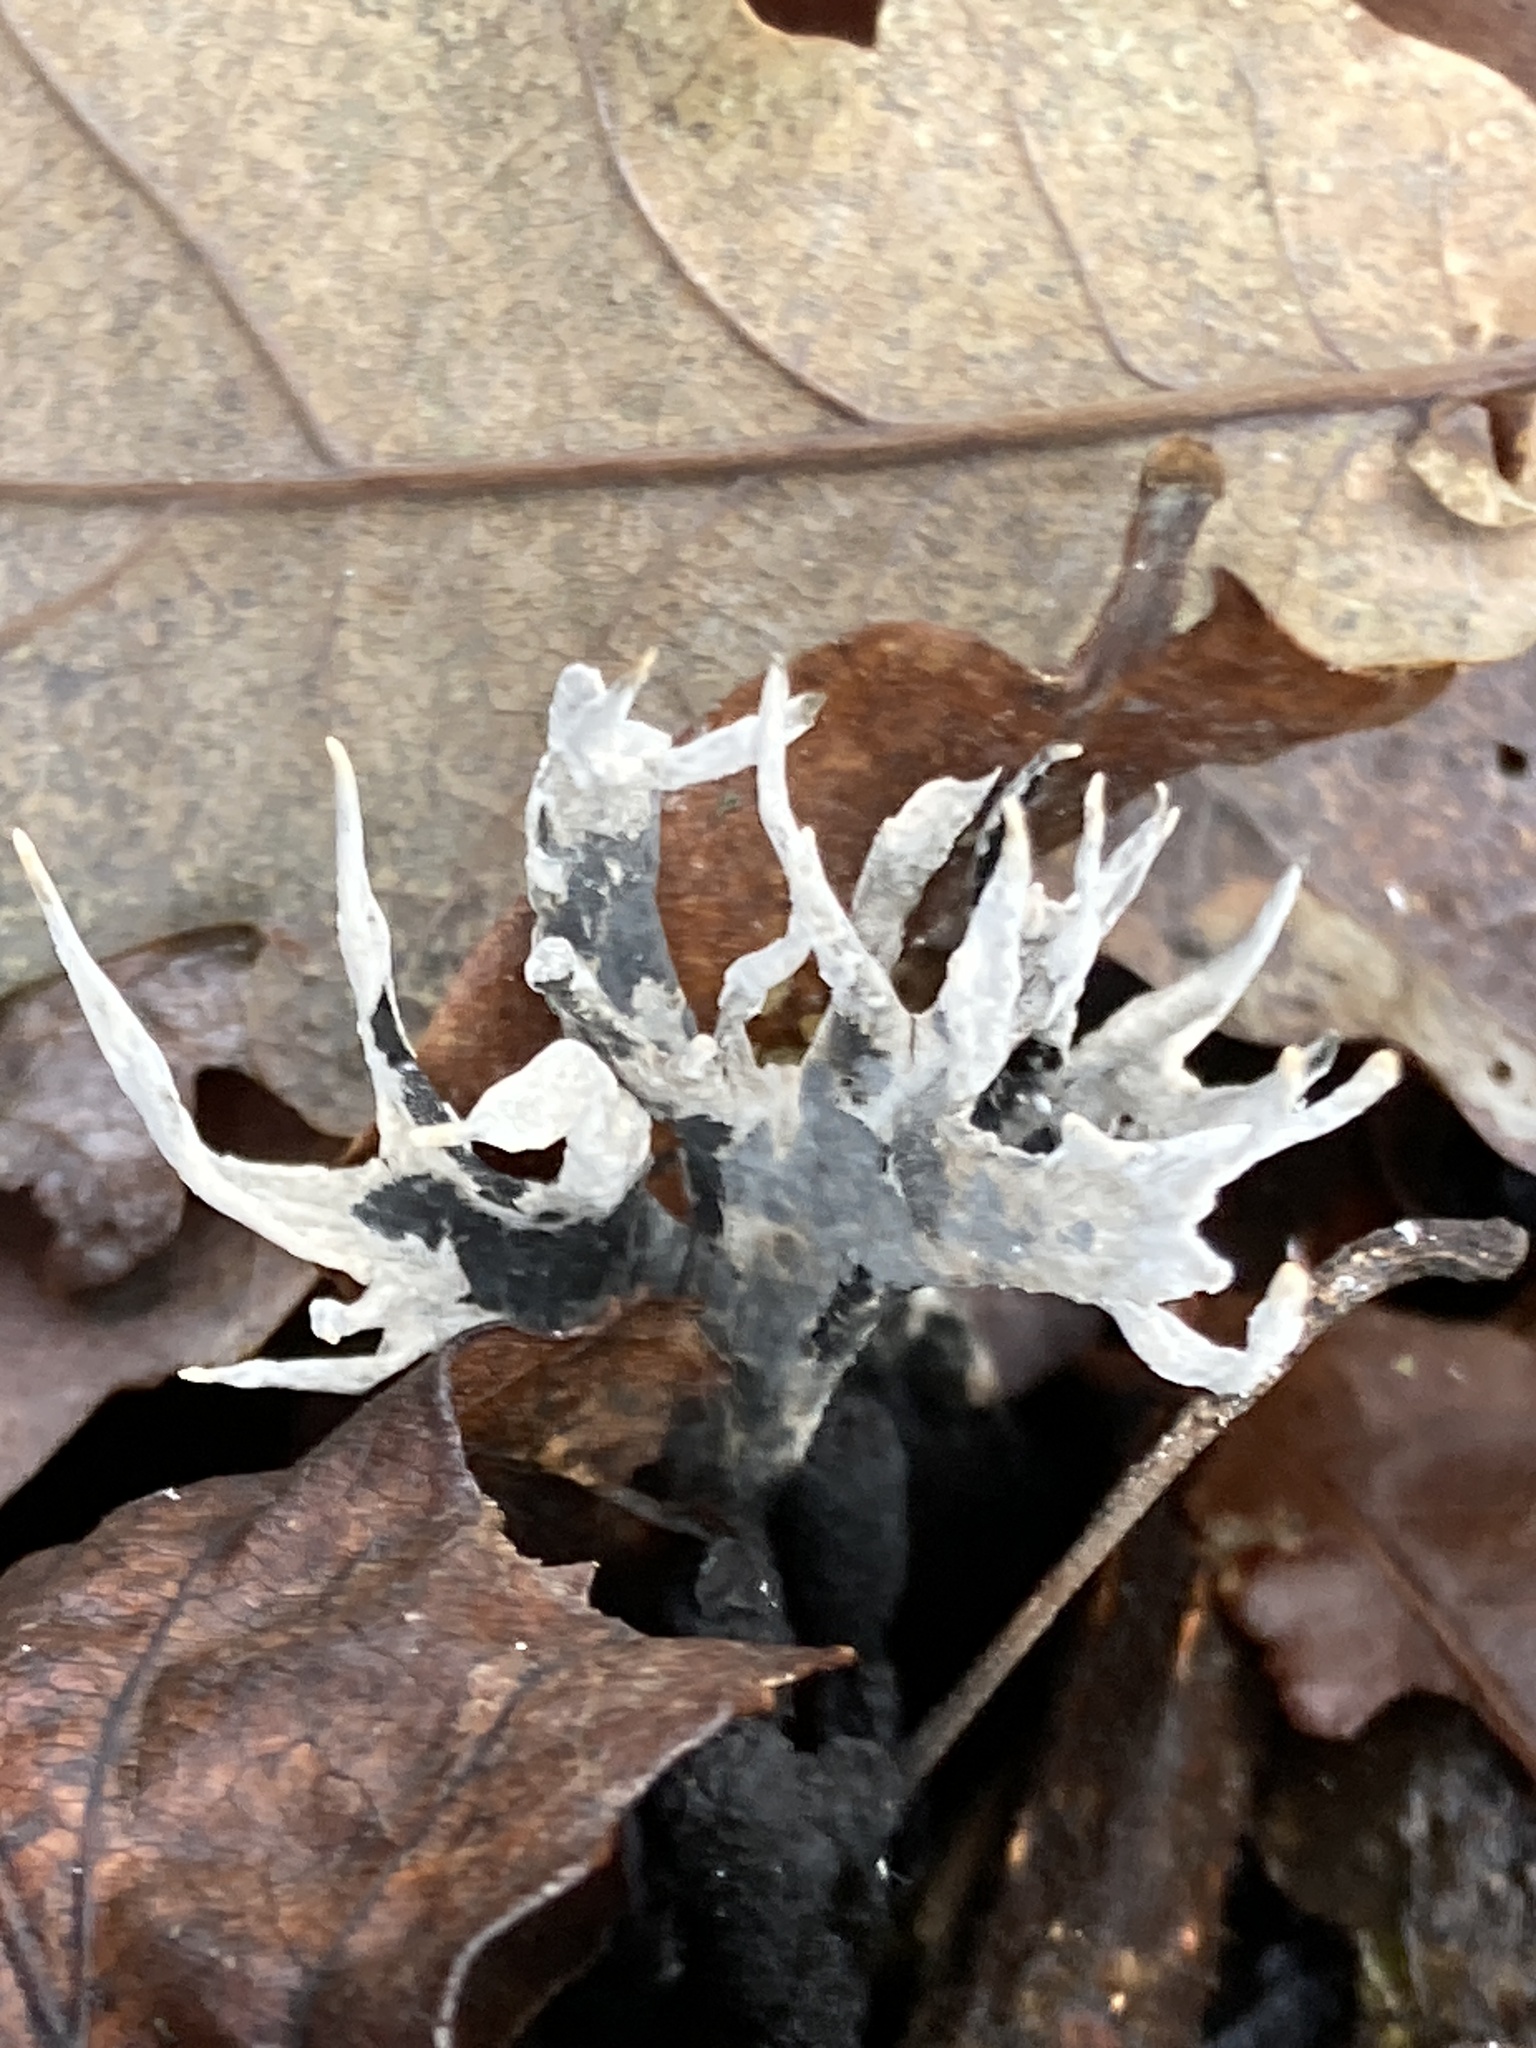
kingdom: Fungi
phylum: Ascomycota
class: Sordariomycetes
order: Xylariales
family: Xylariaceae
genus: Xylaria
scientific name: Xylaria hypoxylon
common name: Candle-snuff fungus
